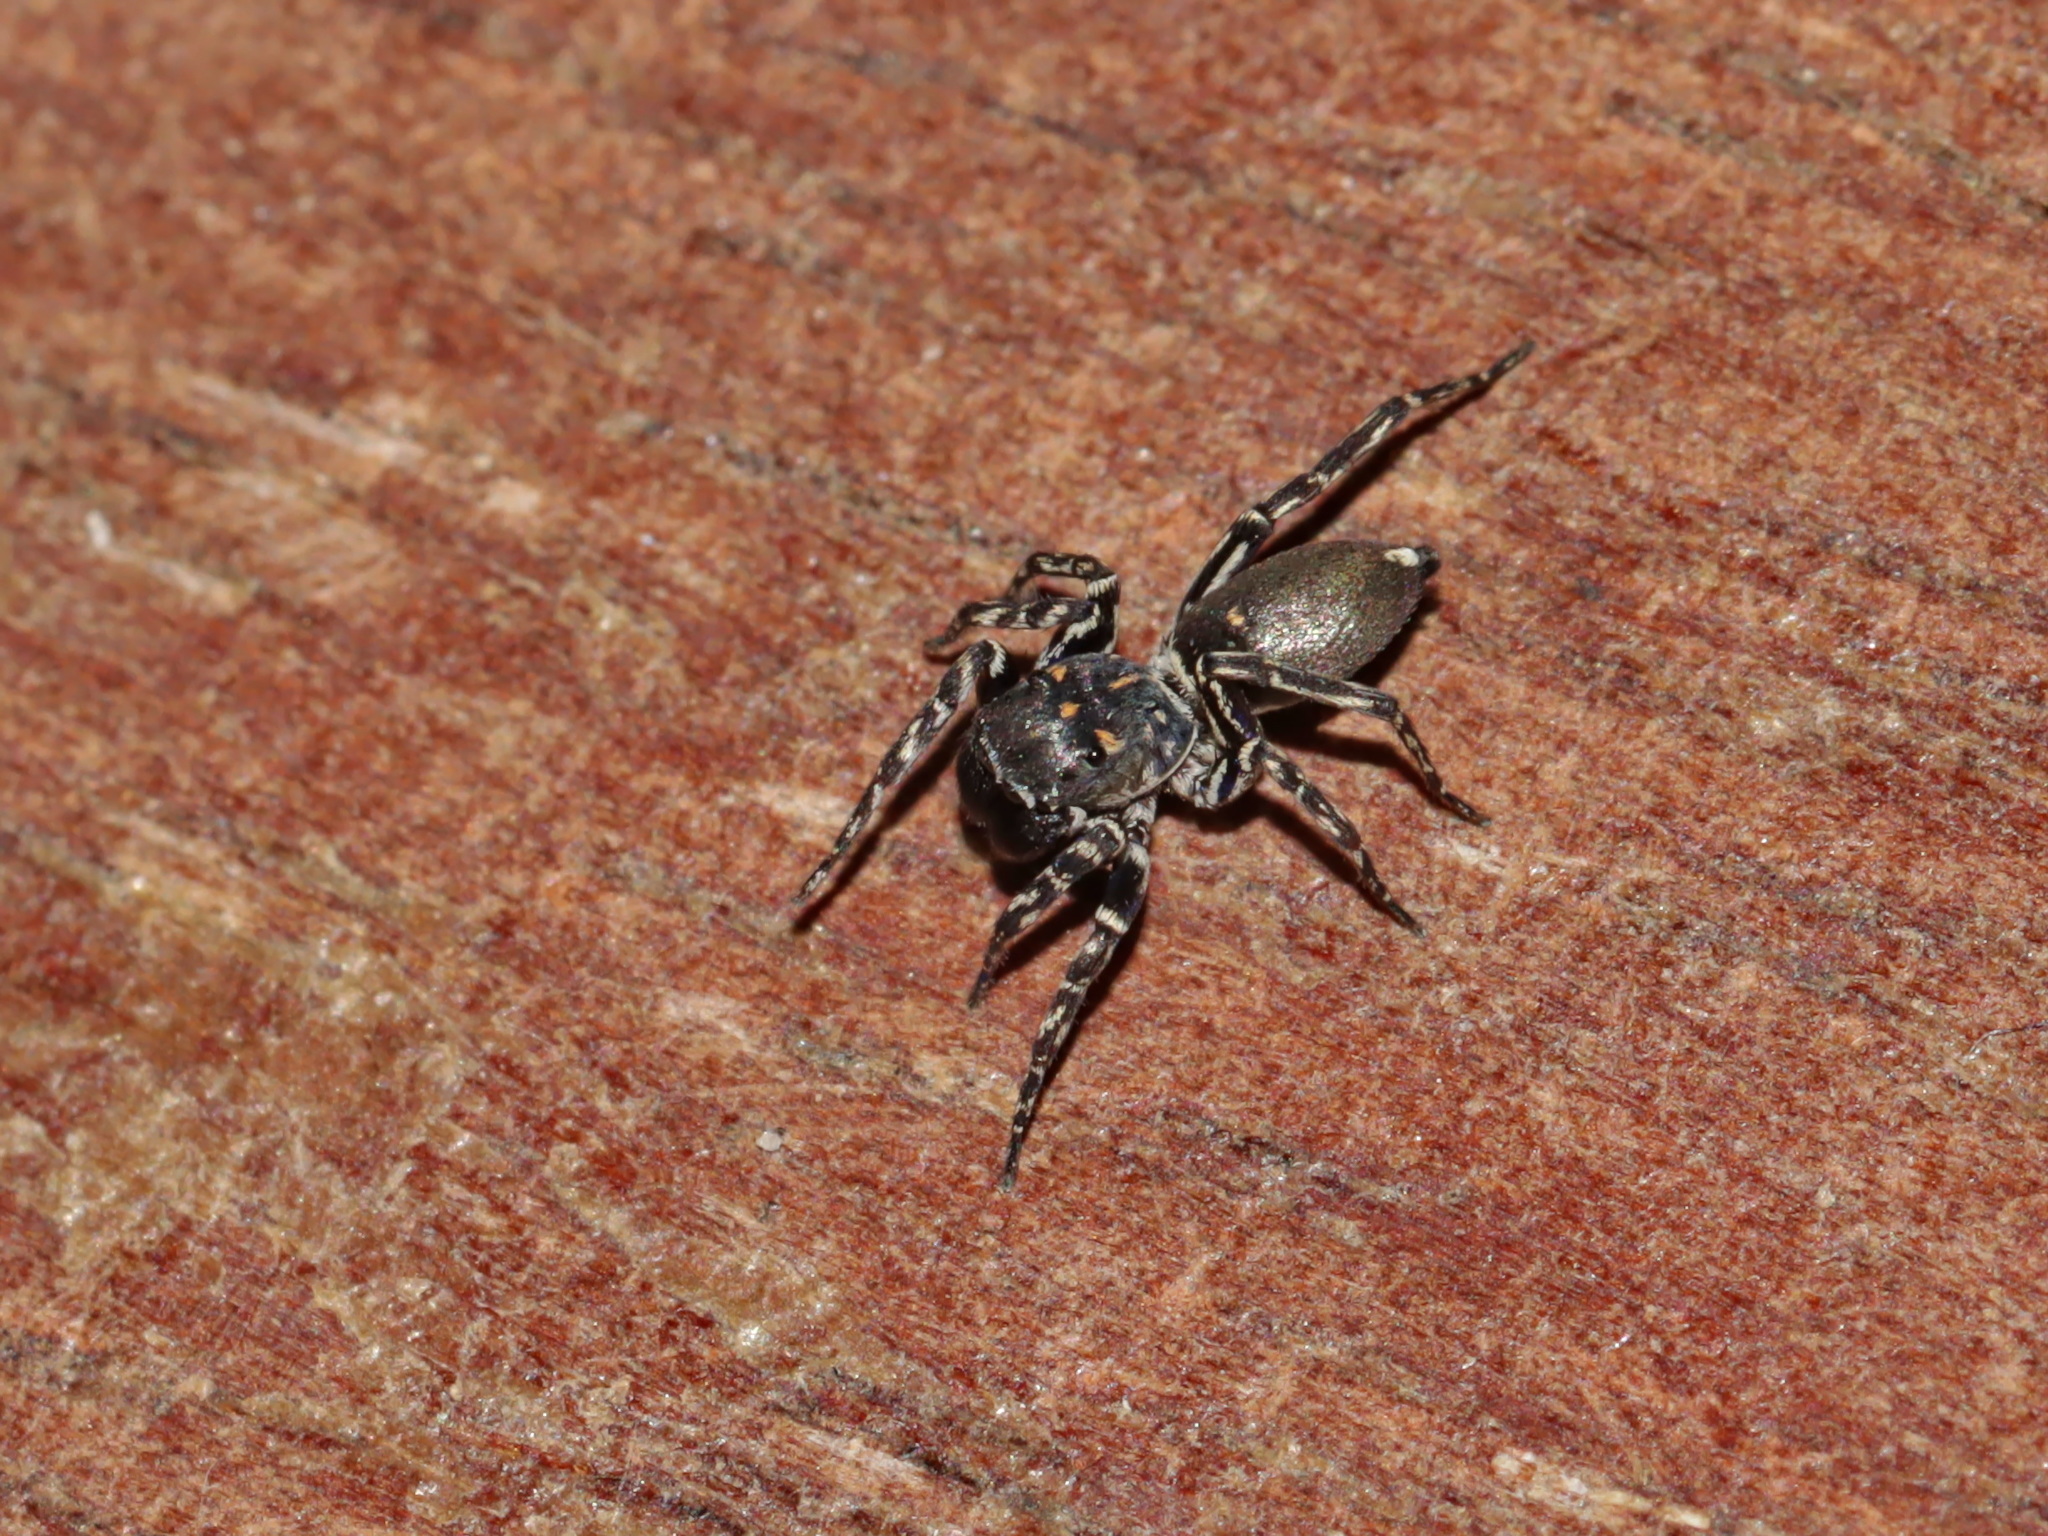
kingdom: Animalia
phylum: Arthropoda
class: Arachnida
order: Araneae
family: Salticidae
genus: Cyrba
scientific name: Cyrba ocellata
